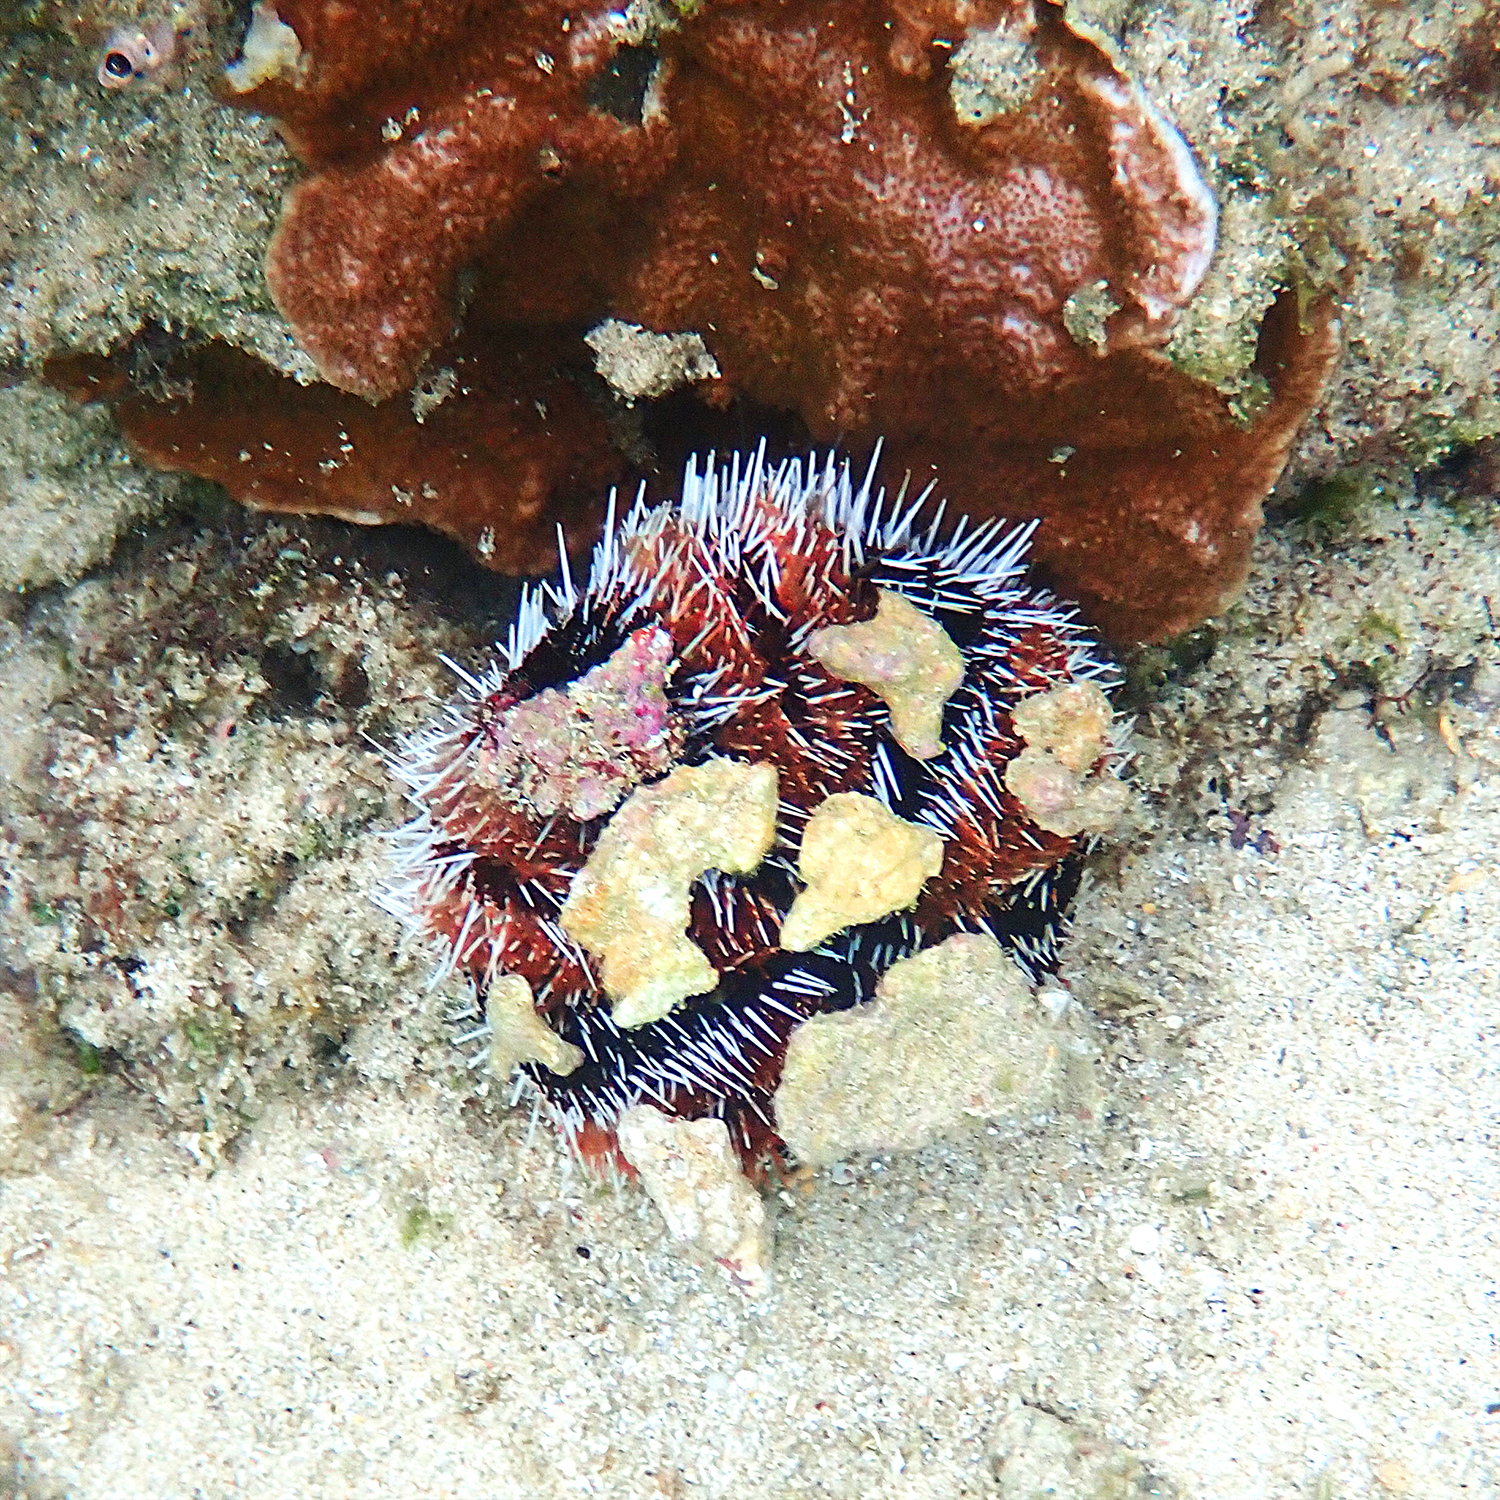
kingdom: Animalia
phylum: Echinodermata
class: Echinoidea
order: Camarodonta
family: Toxopneustidae
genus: Tripneustes
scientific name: Tripneustes gratilla
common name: Bischofsmützenseeigel
